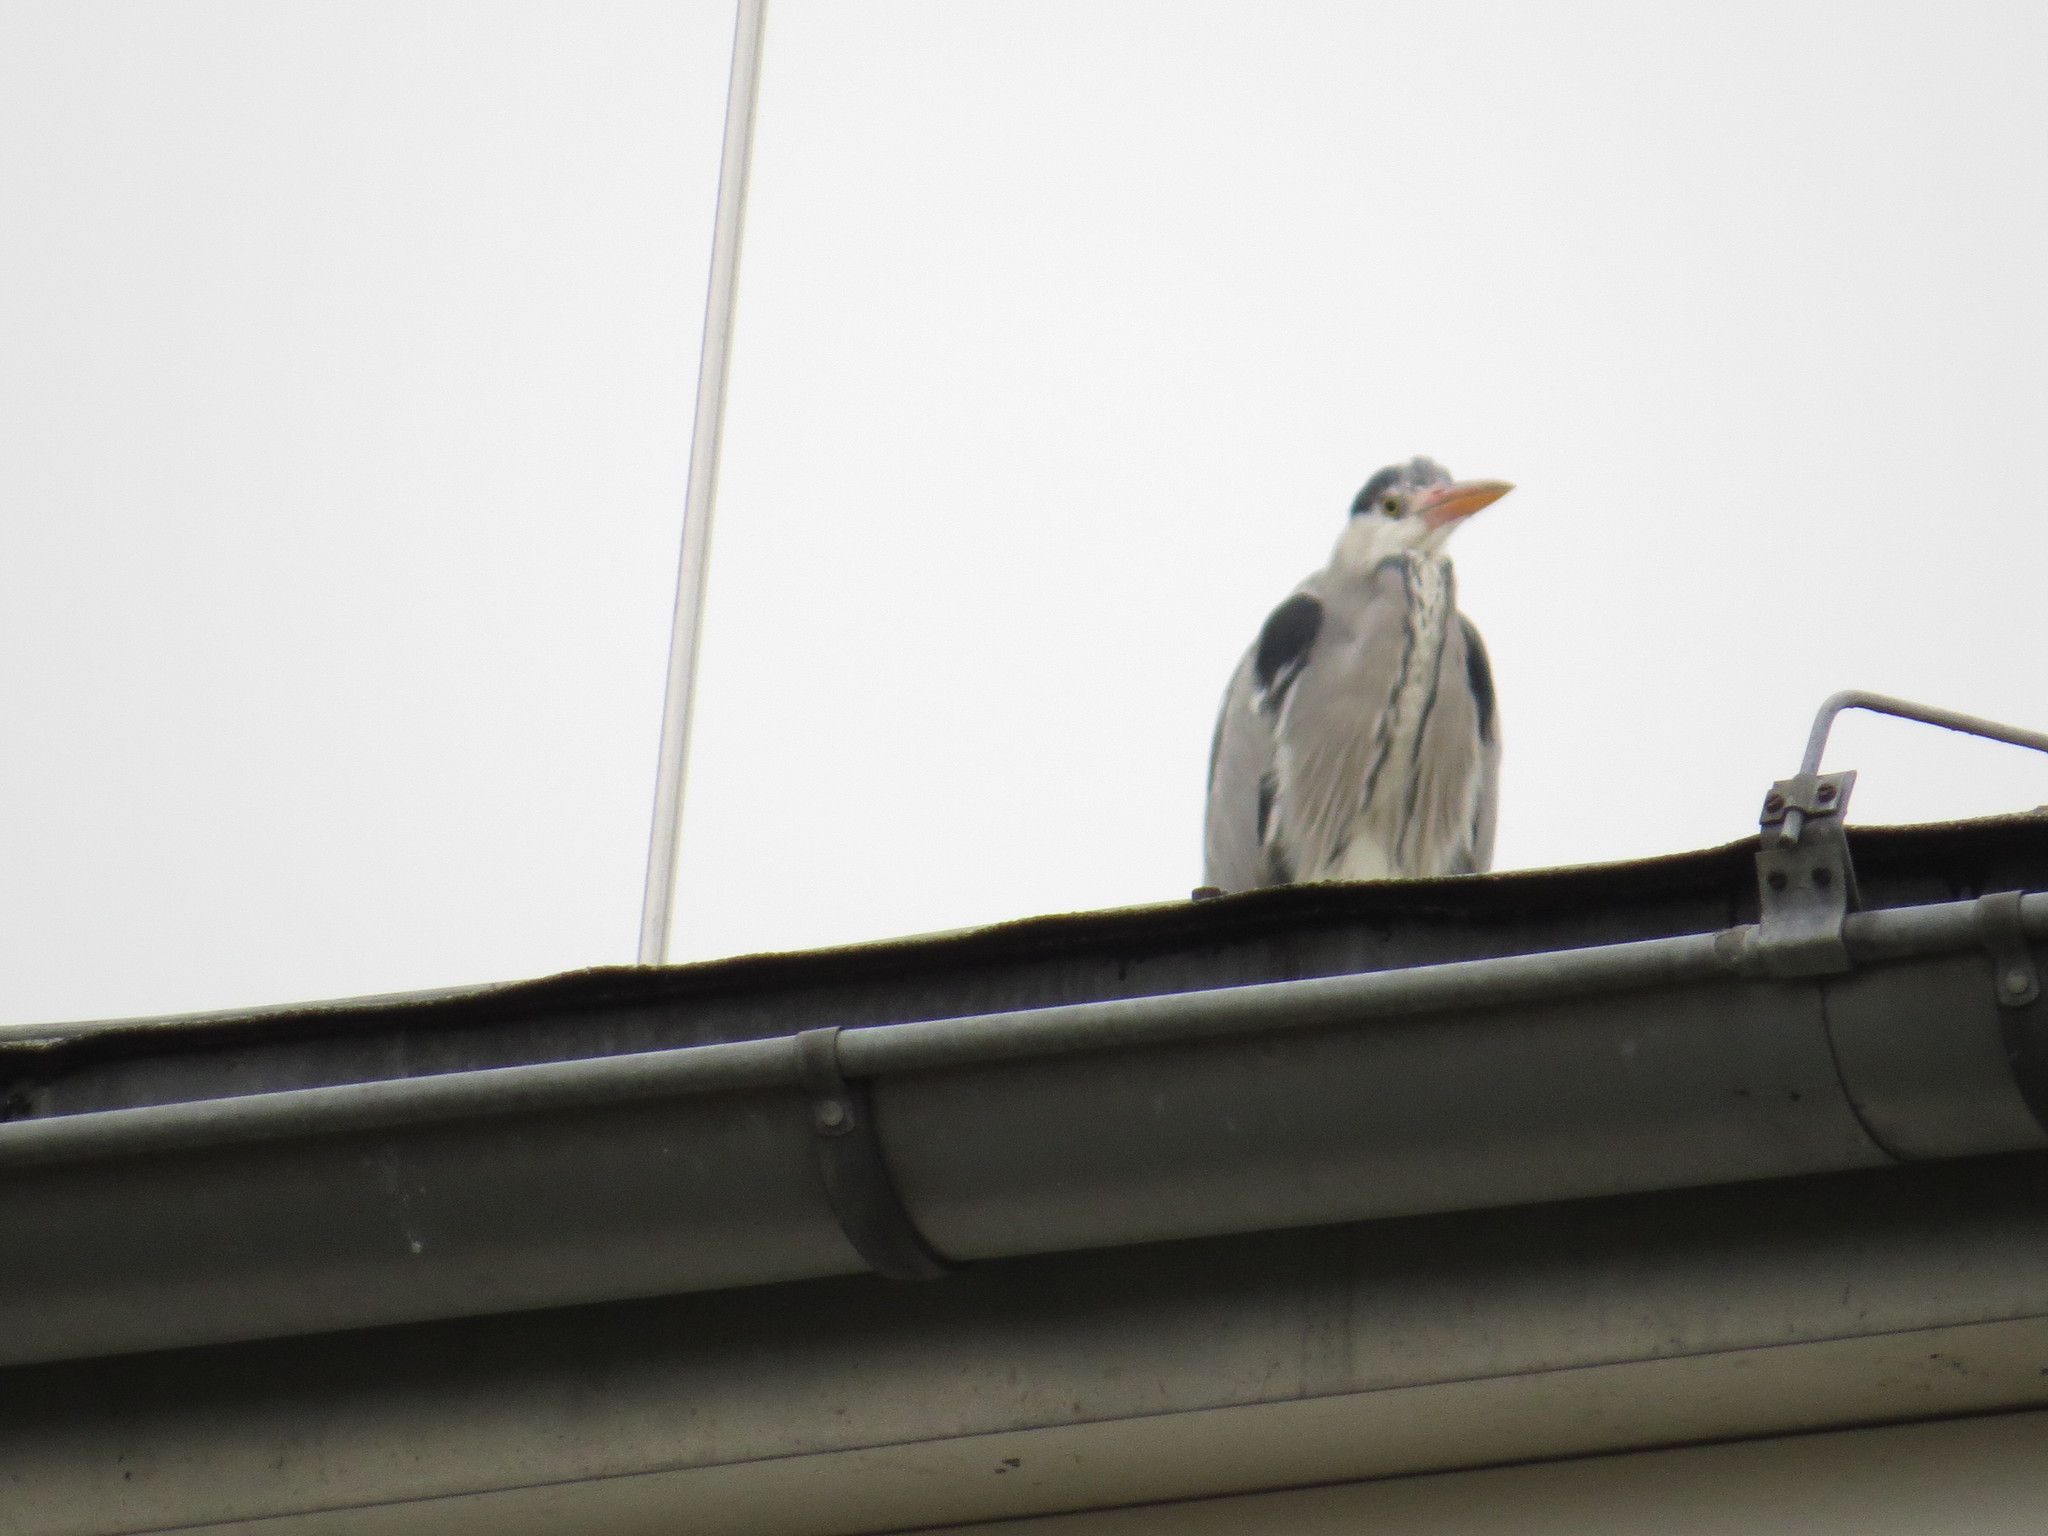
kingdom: Animalia
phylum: Chordata
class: Aves
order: Pelecaniformes
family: Ardeidae
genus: Ardea
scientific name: Ardea cinerea
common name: Grey heron
